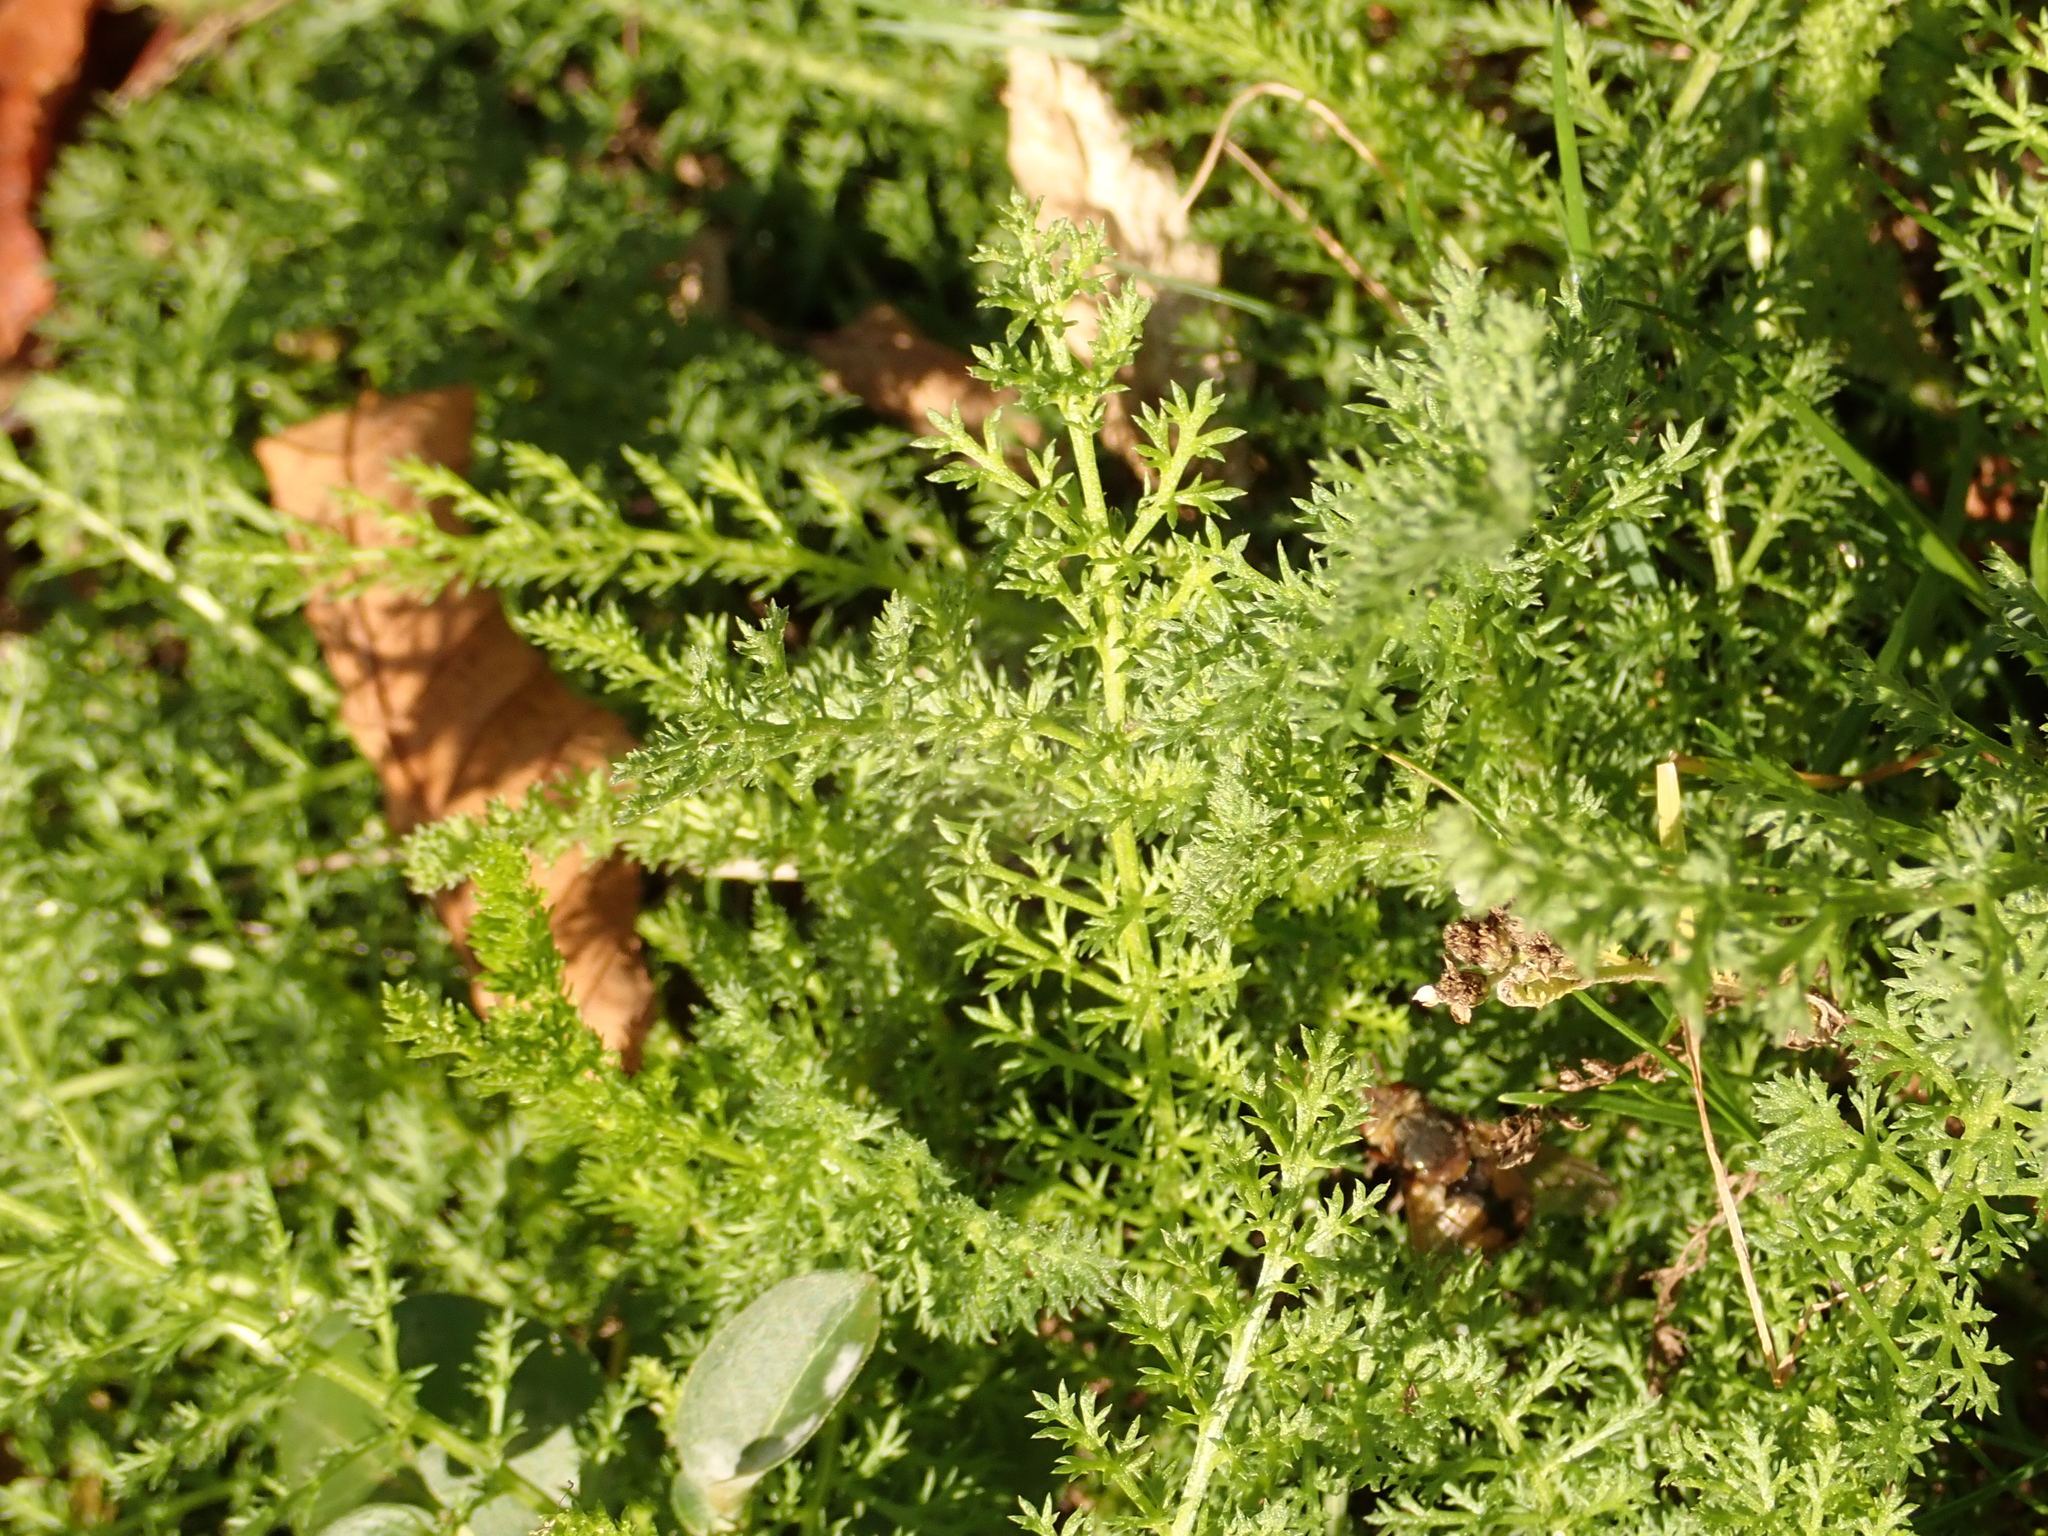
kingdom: Plantae
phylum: Tracheophyta
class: Magnoliopsida
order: Asterales
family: Asteraceae
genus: Achillea
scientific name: Achillea millefolium
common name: Yarrow
